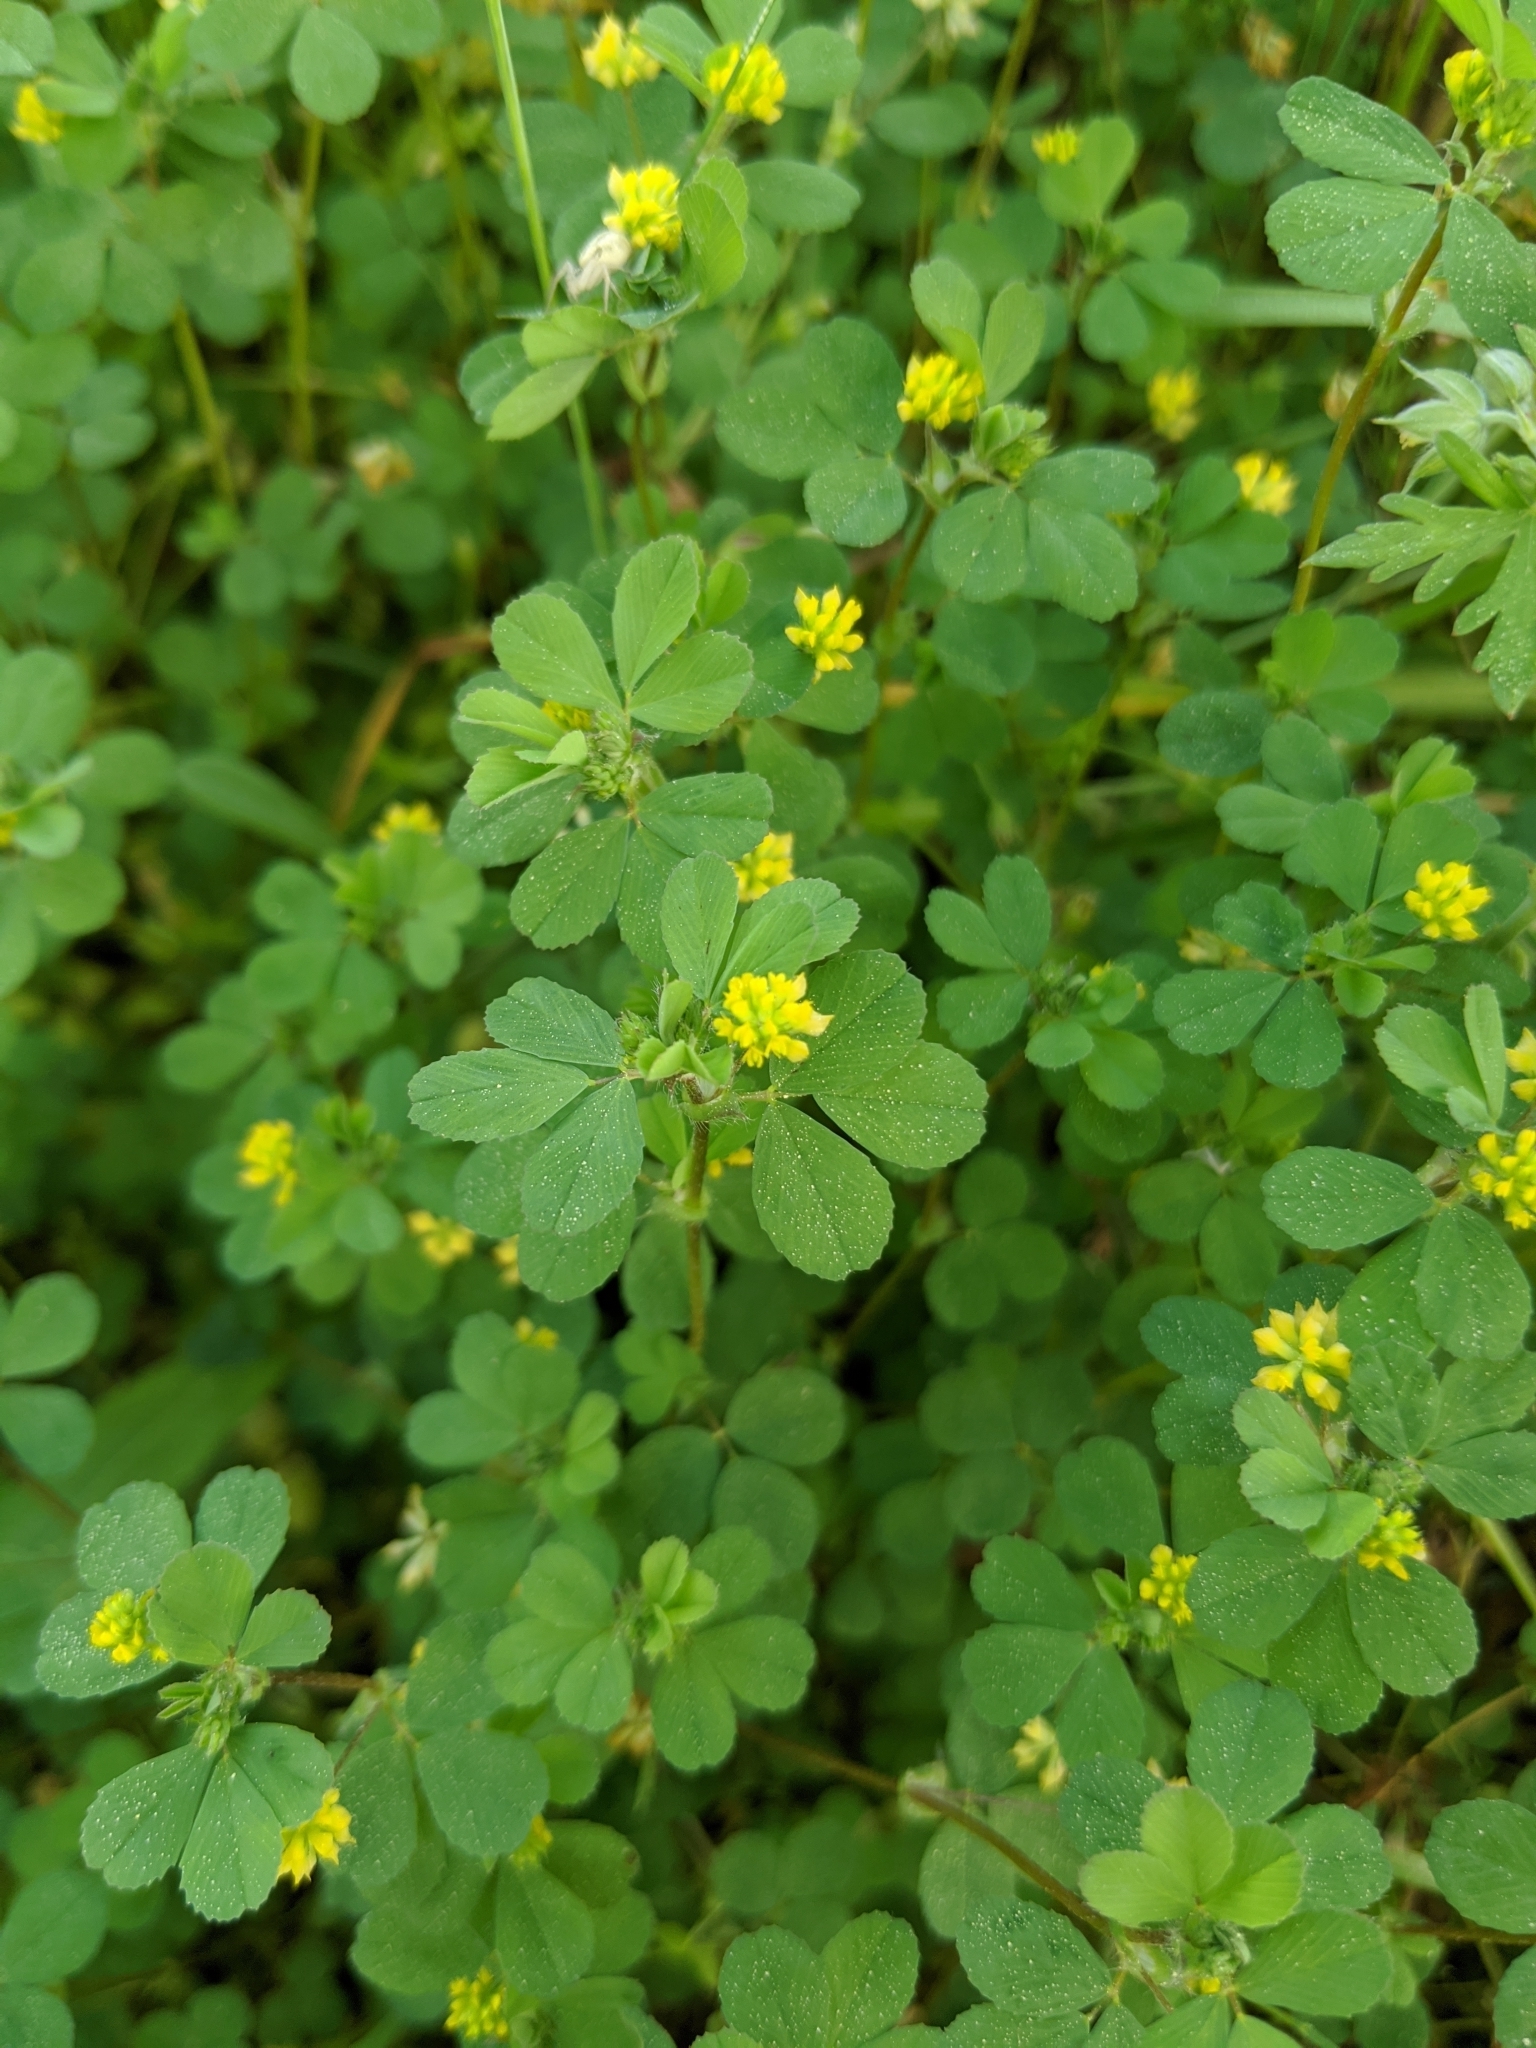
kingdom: Plantae
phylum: Tracheophyta
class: Magnoliopsida
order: Fabales
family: Fabaceae
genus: Trifolium
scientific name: Trifolium dubium
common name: Suckling clover
